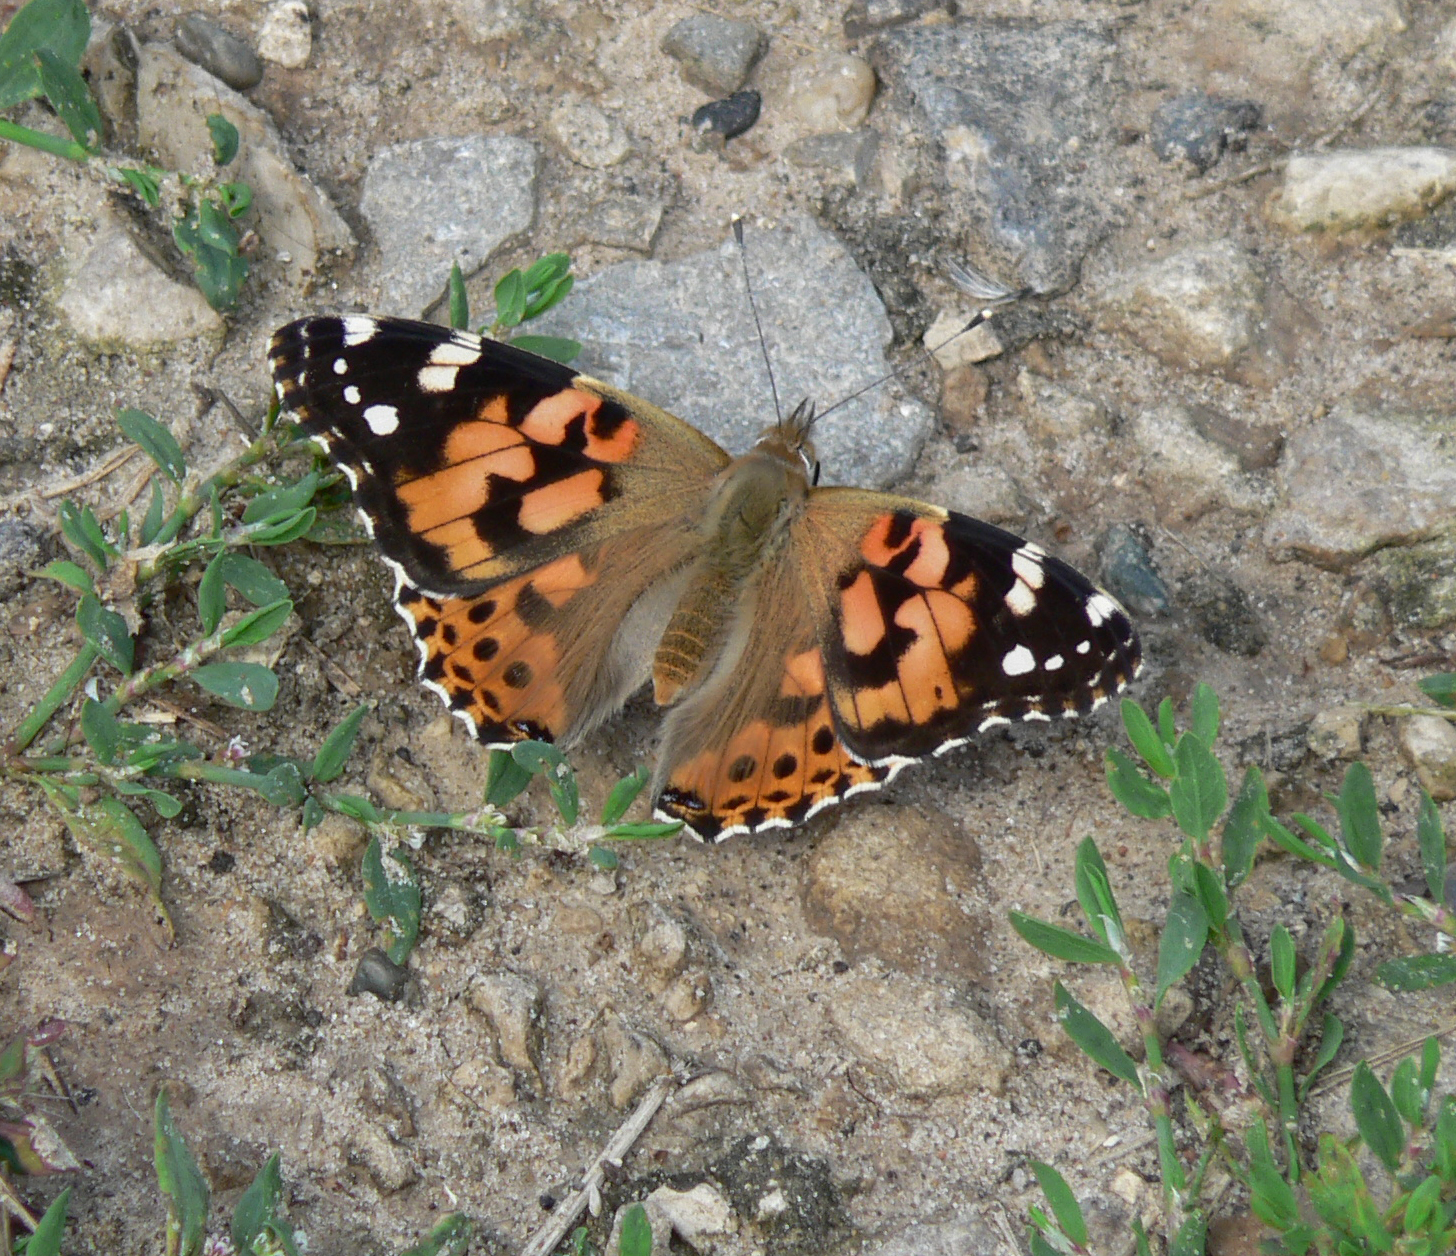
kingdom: Animalia
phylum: Arthropoda
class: Insecta
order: Lepidoptera
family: Nymphalidae
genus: Vanessa
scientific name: Vanessa cardui
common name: Painted lady
